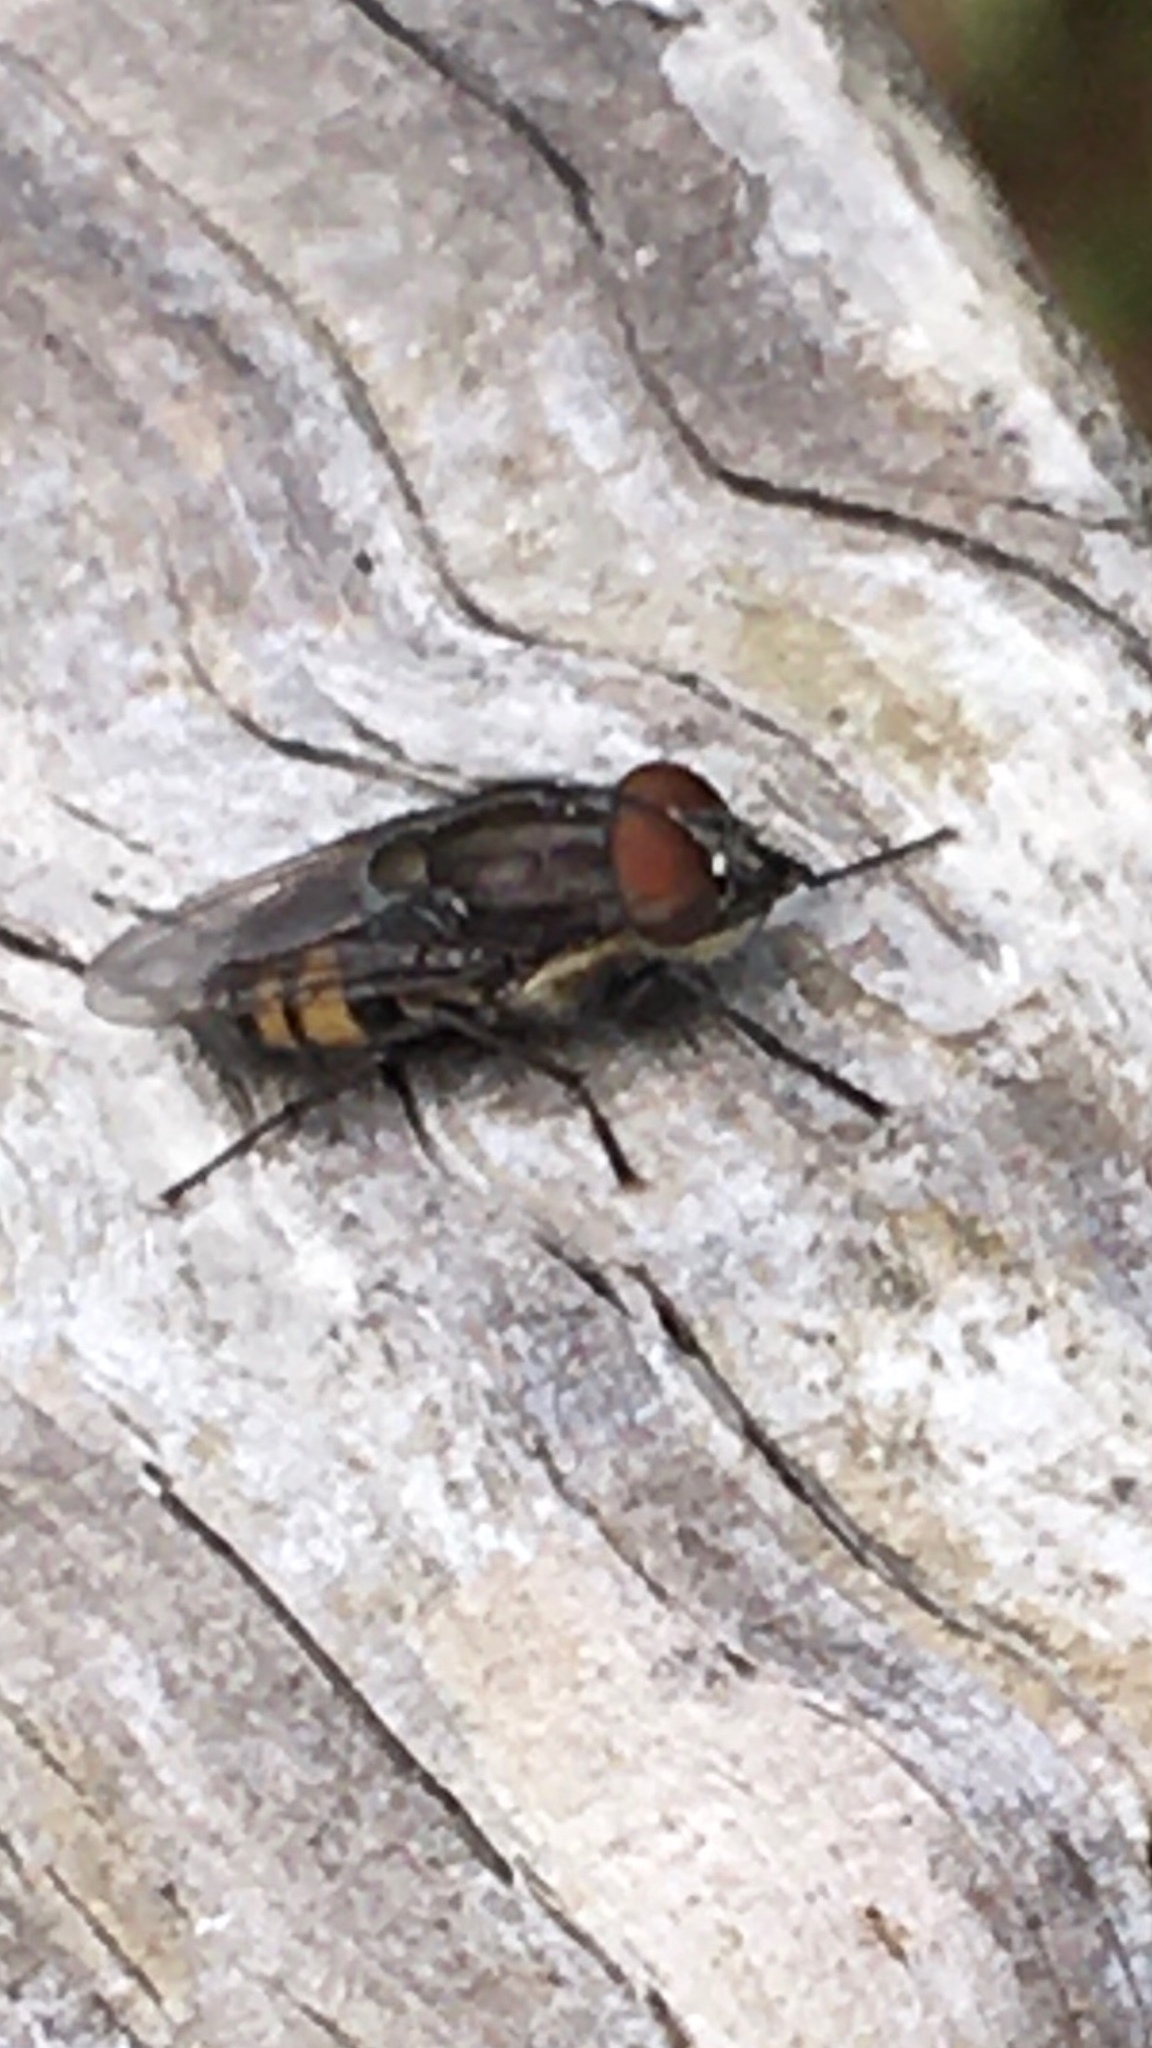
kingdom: Animalia
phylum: Arthropoda
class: Insecta
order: Diptera
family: Calliphoridae
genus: Stomorhina
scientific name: Stomorhina lunata
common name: Locust blowfly
